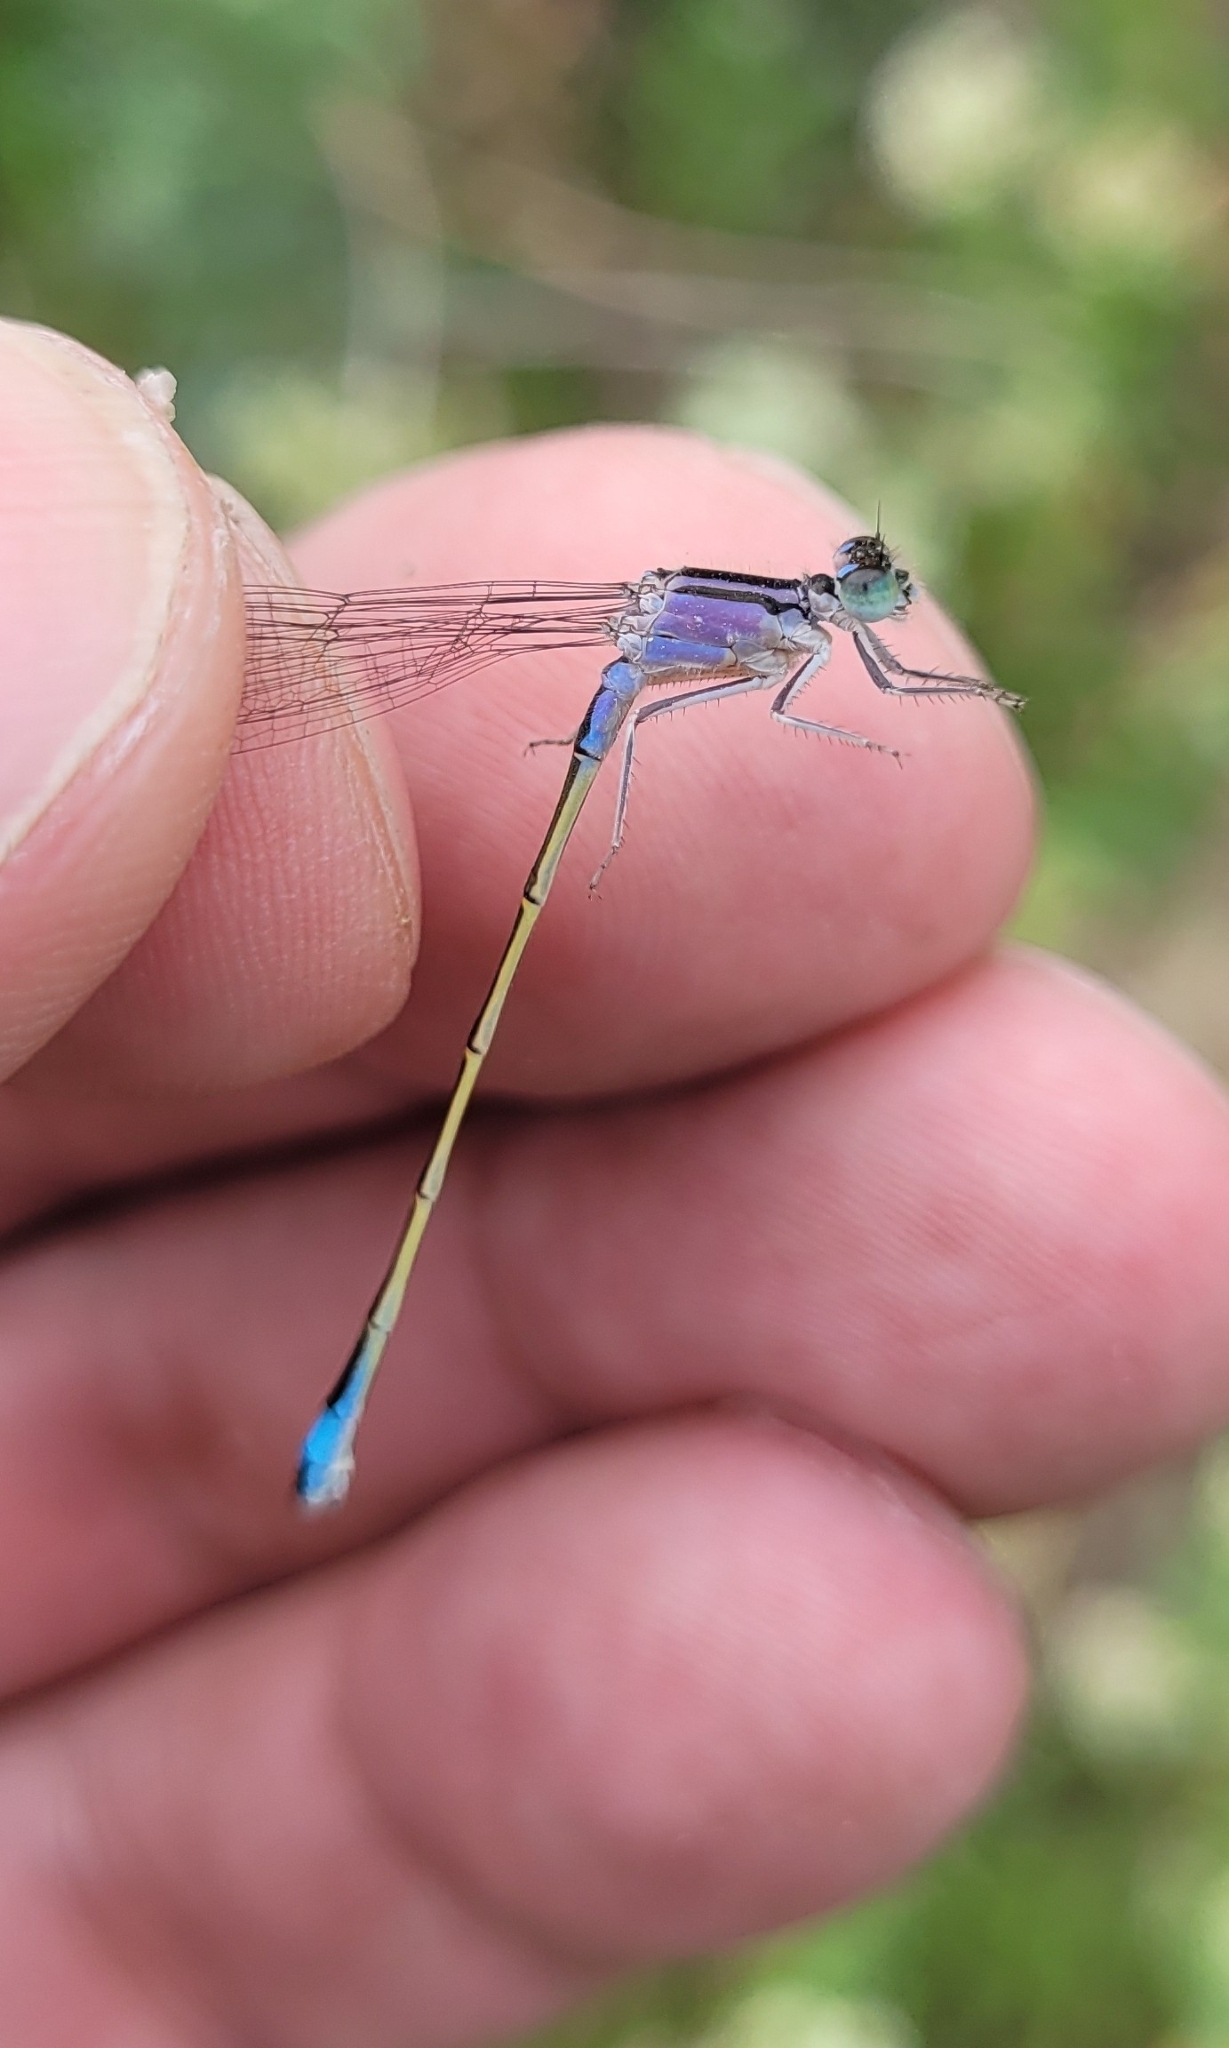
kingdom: Animalia
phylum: Arthropoda
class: Insecta
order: Odonata
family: Coenagrionidae
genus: Ischnura
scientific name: Ischnura elegans
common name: Blue-tailed damselfly
